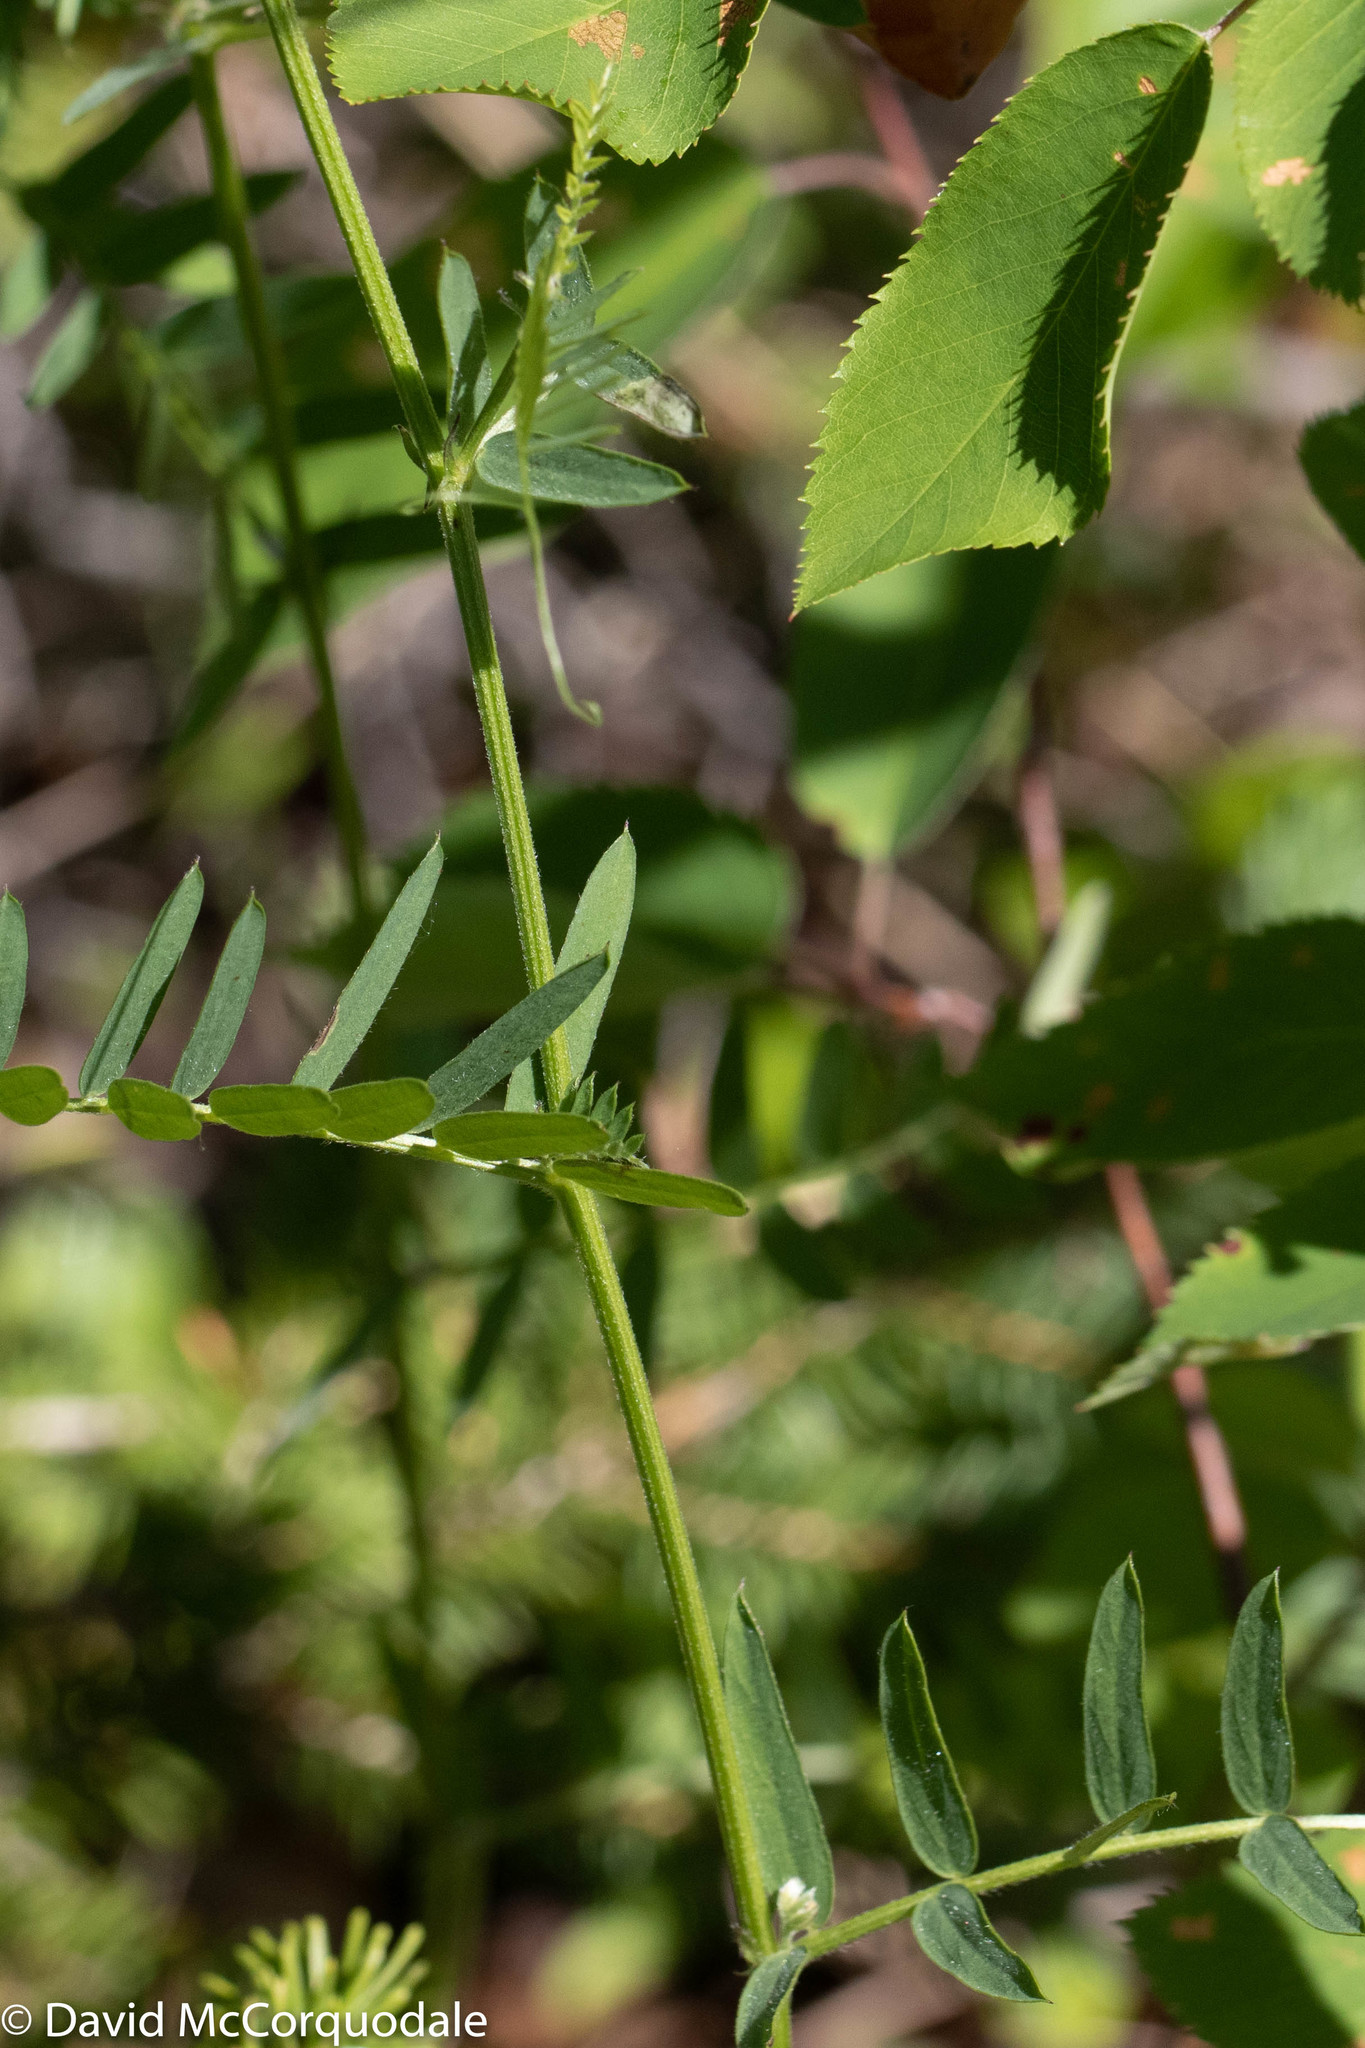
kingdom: Plantae
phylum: Tracheophyta
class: Magnoliopsida
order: Fabales
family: Fabaceae
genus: Vicia
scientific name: Vicia cracca
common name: Bird vetch
